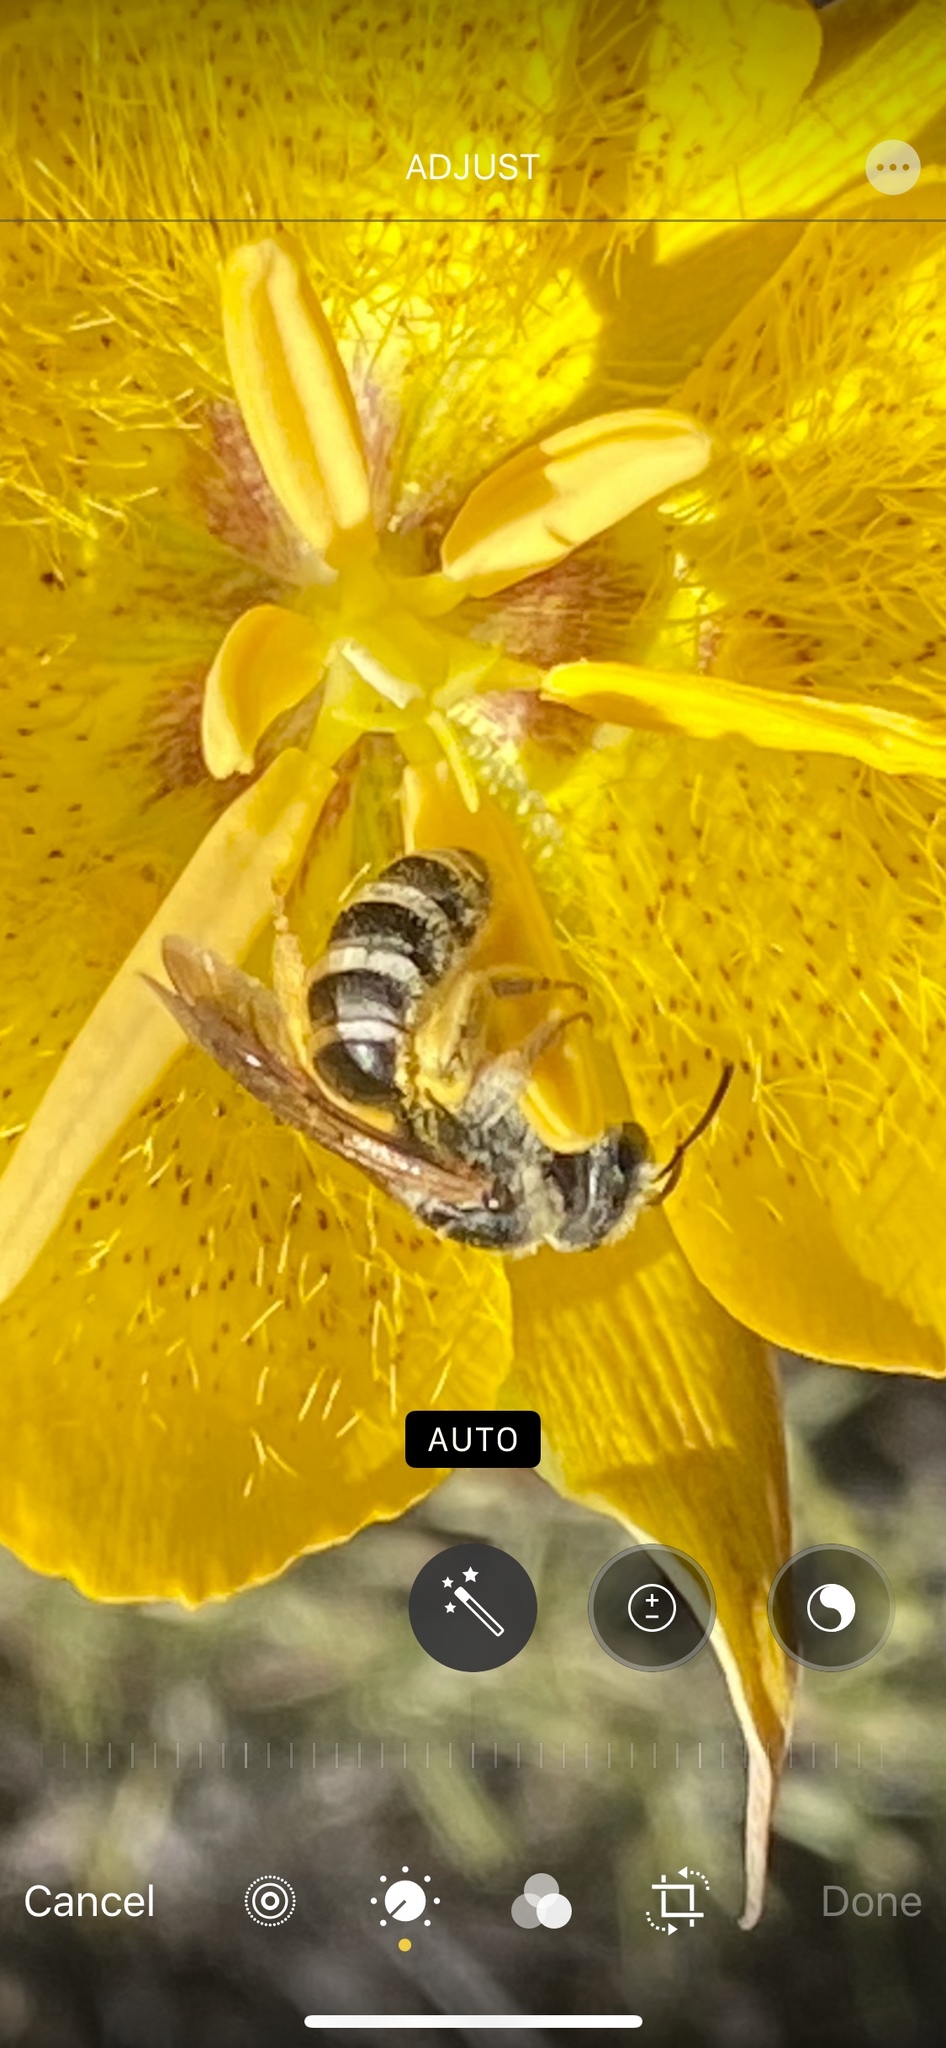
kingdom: Animalia
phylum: Arthropoda
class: Insecta
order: Hymenoptera
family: Halictidae
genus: Halictus
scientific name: Halictus farinosus
